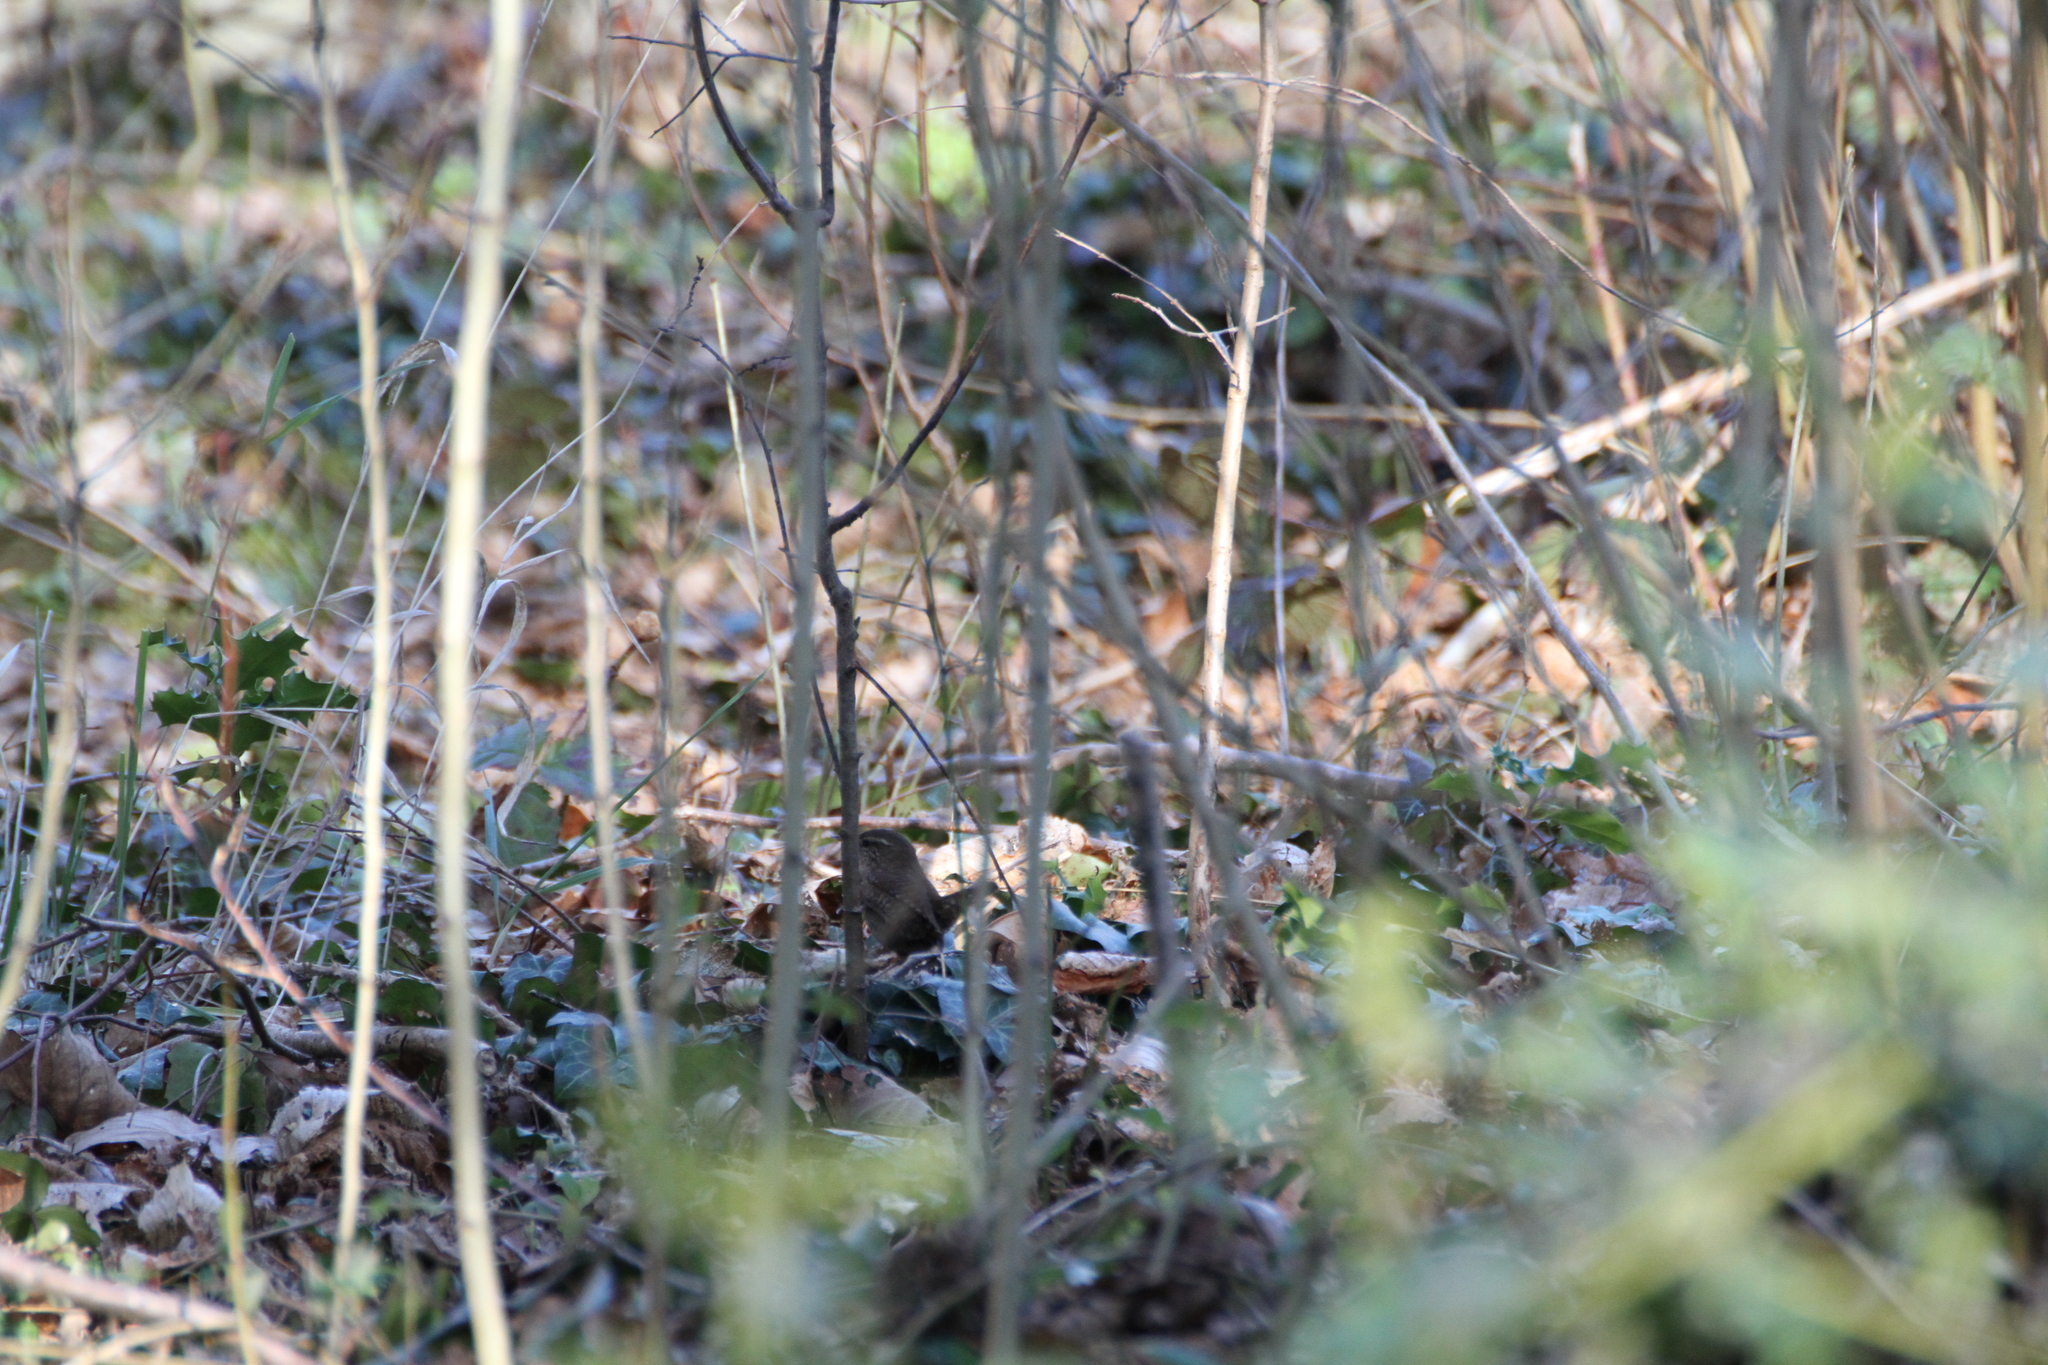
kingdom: Animalia
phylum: Chordata
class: Aves
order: Passeriformes
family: Troglodytidae
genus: Troglodytes
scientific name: Troglodytes troglodytes
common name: Eurasian wren
